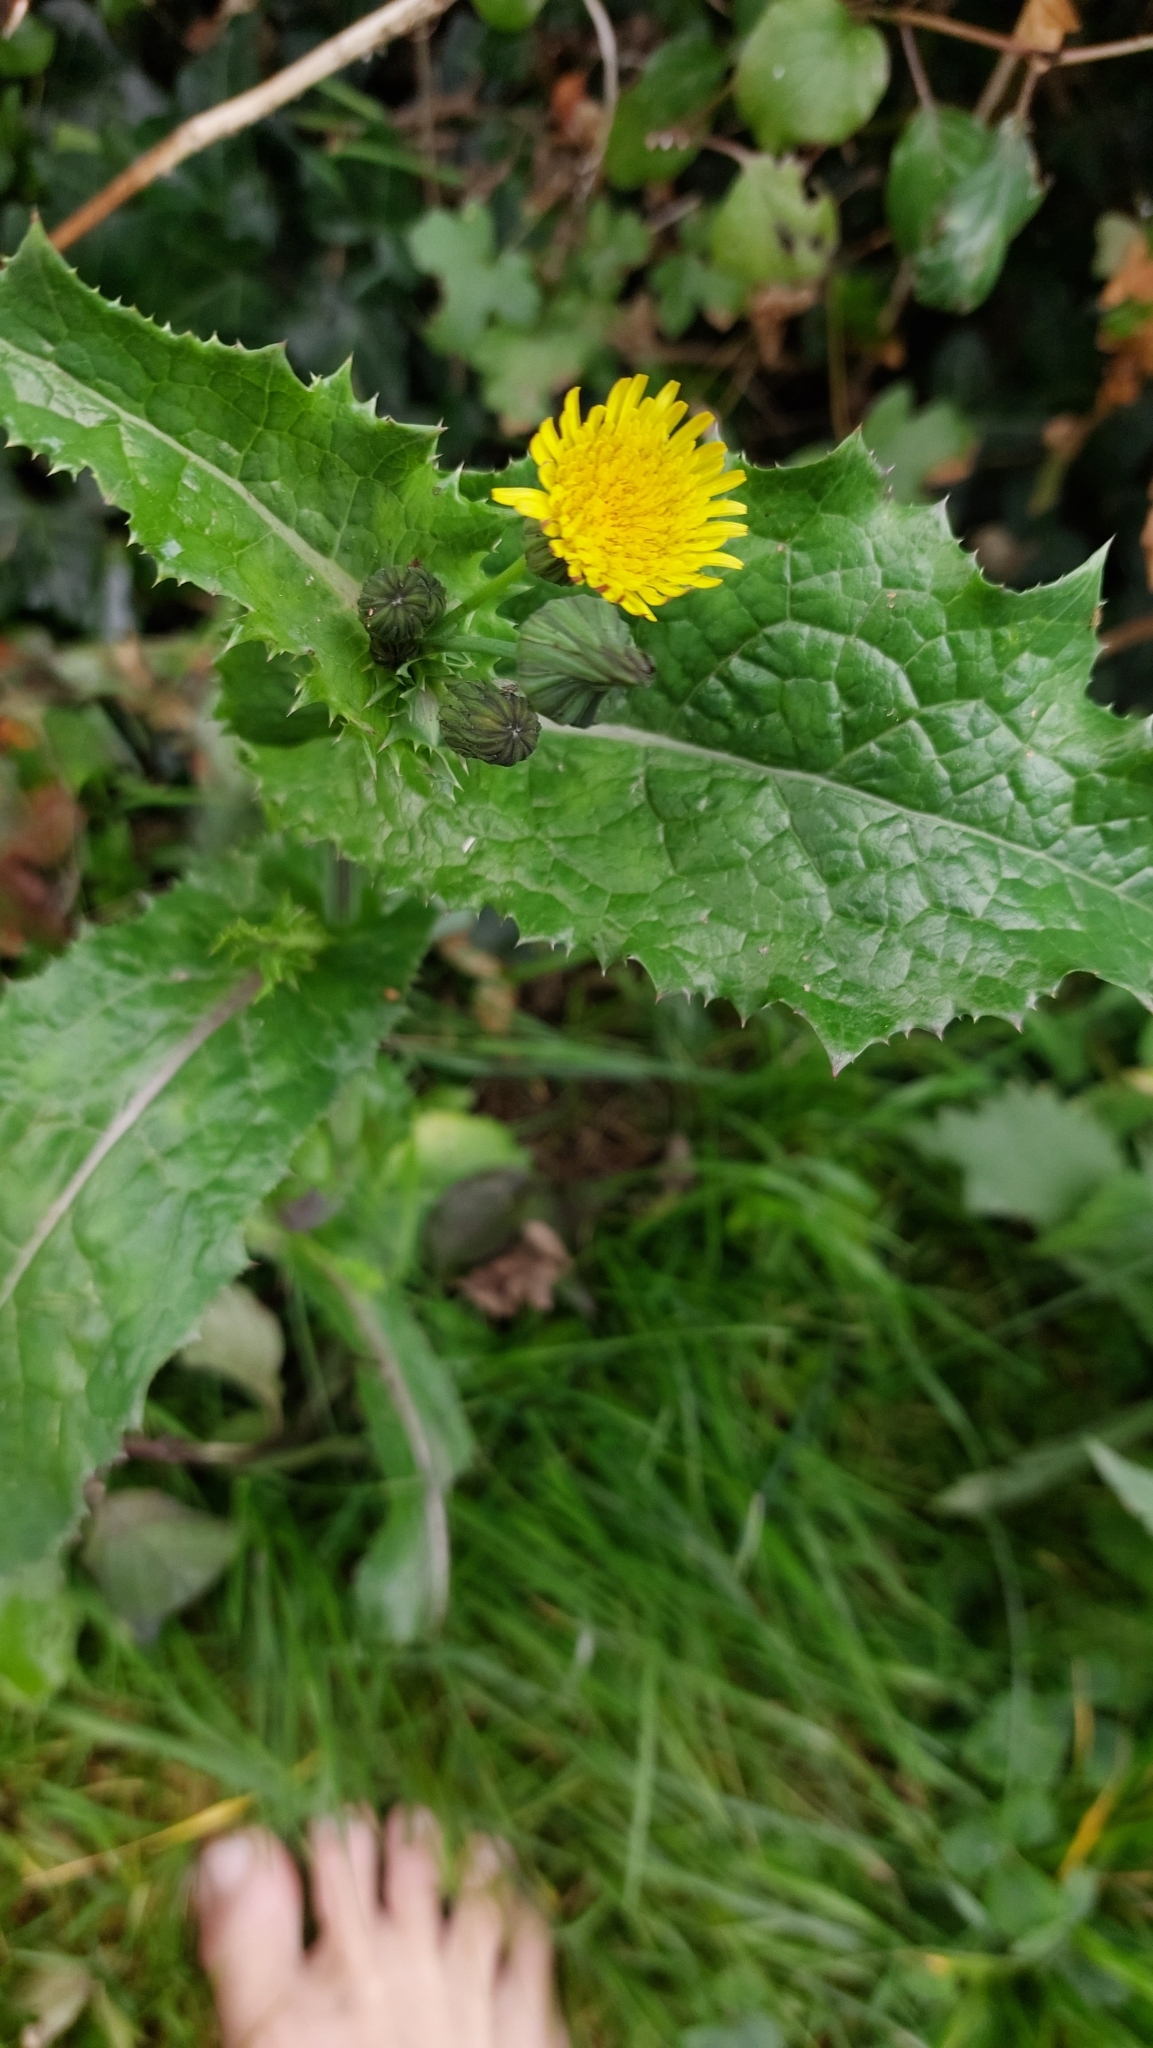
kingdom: Plantae
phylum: Tracheophyta
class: Magnoliopsida
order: Asterales
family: Asteraceae
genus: Sonchus
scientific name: Sonchus asper
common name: Prickly sow-thistle
